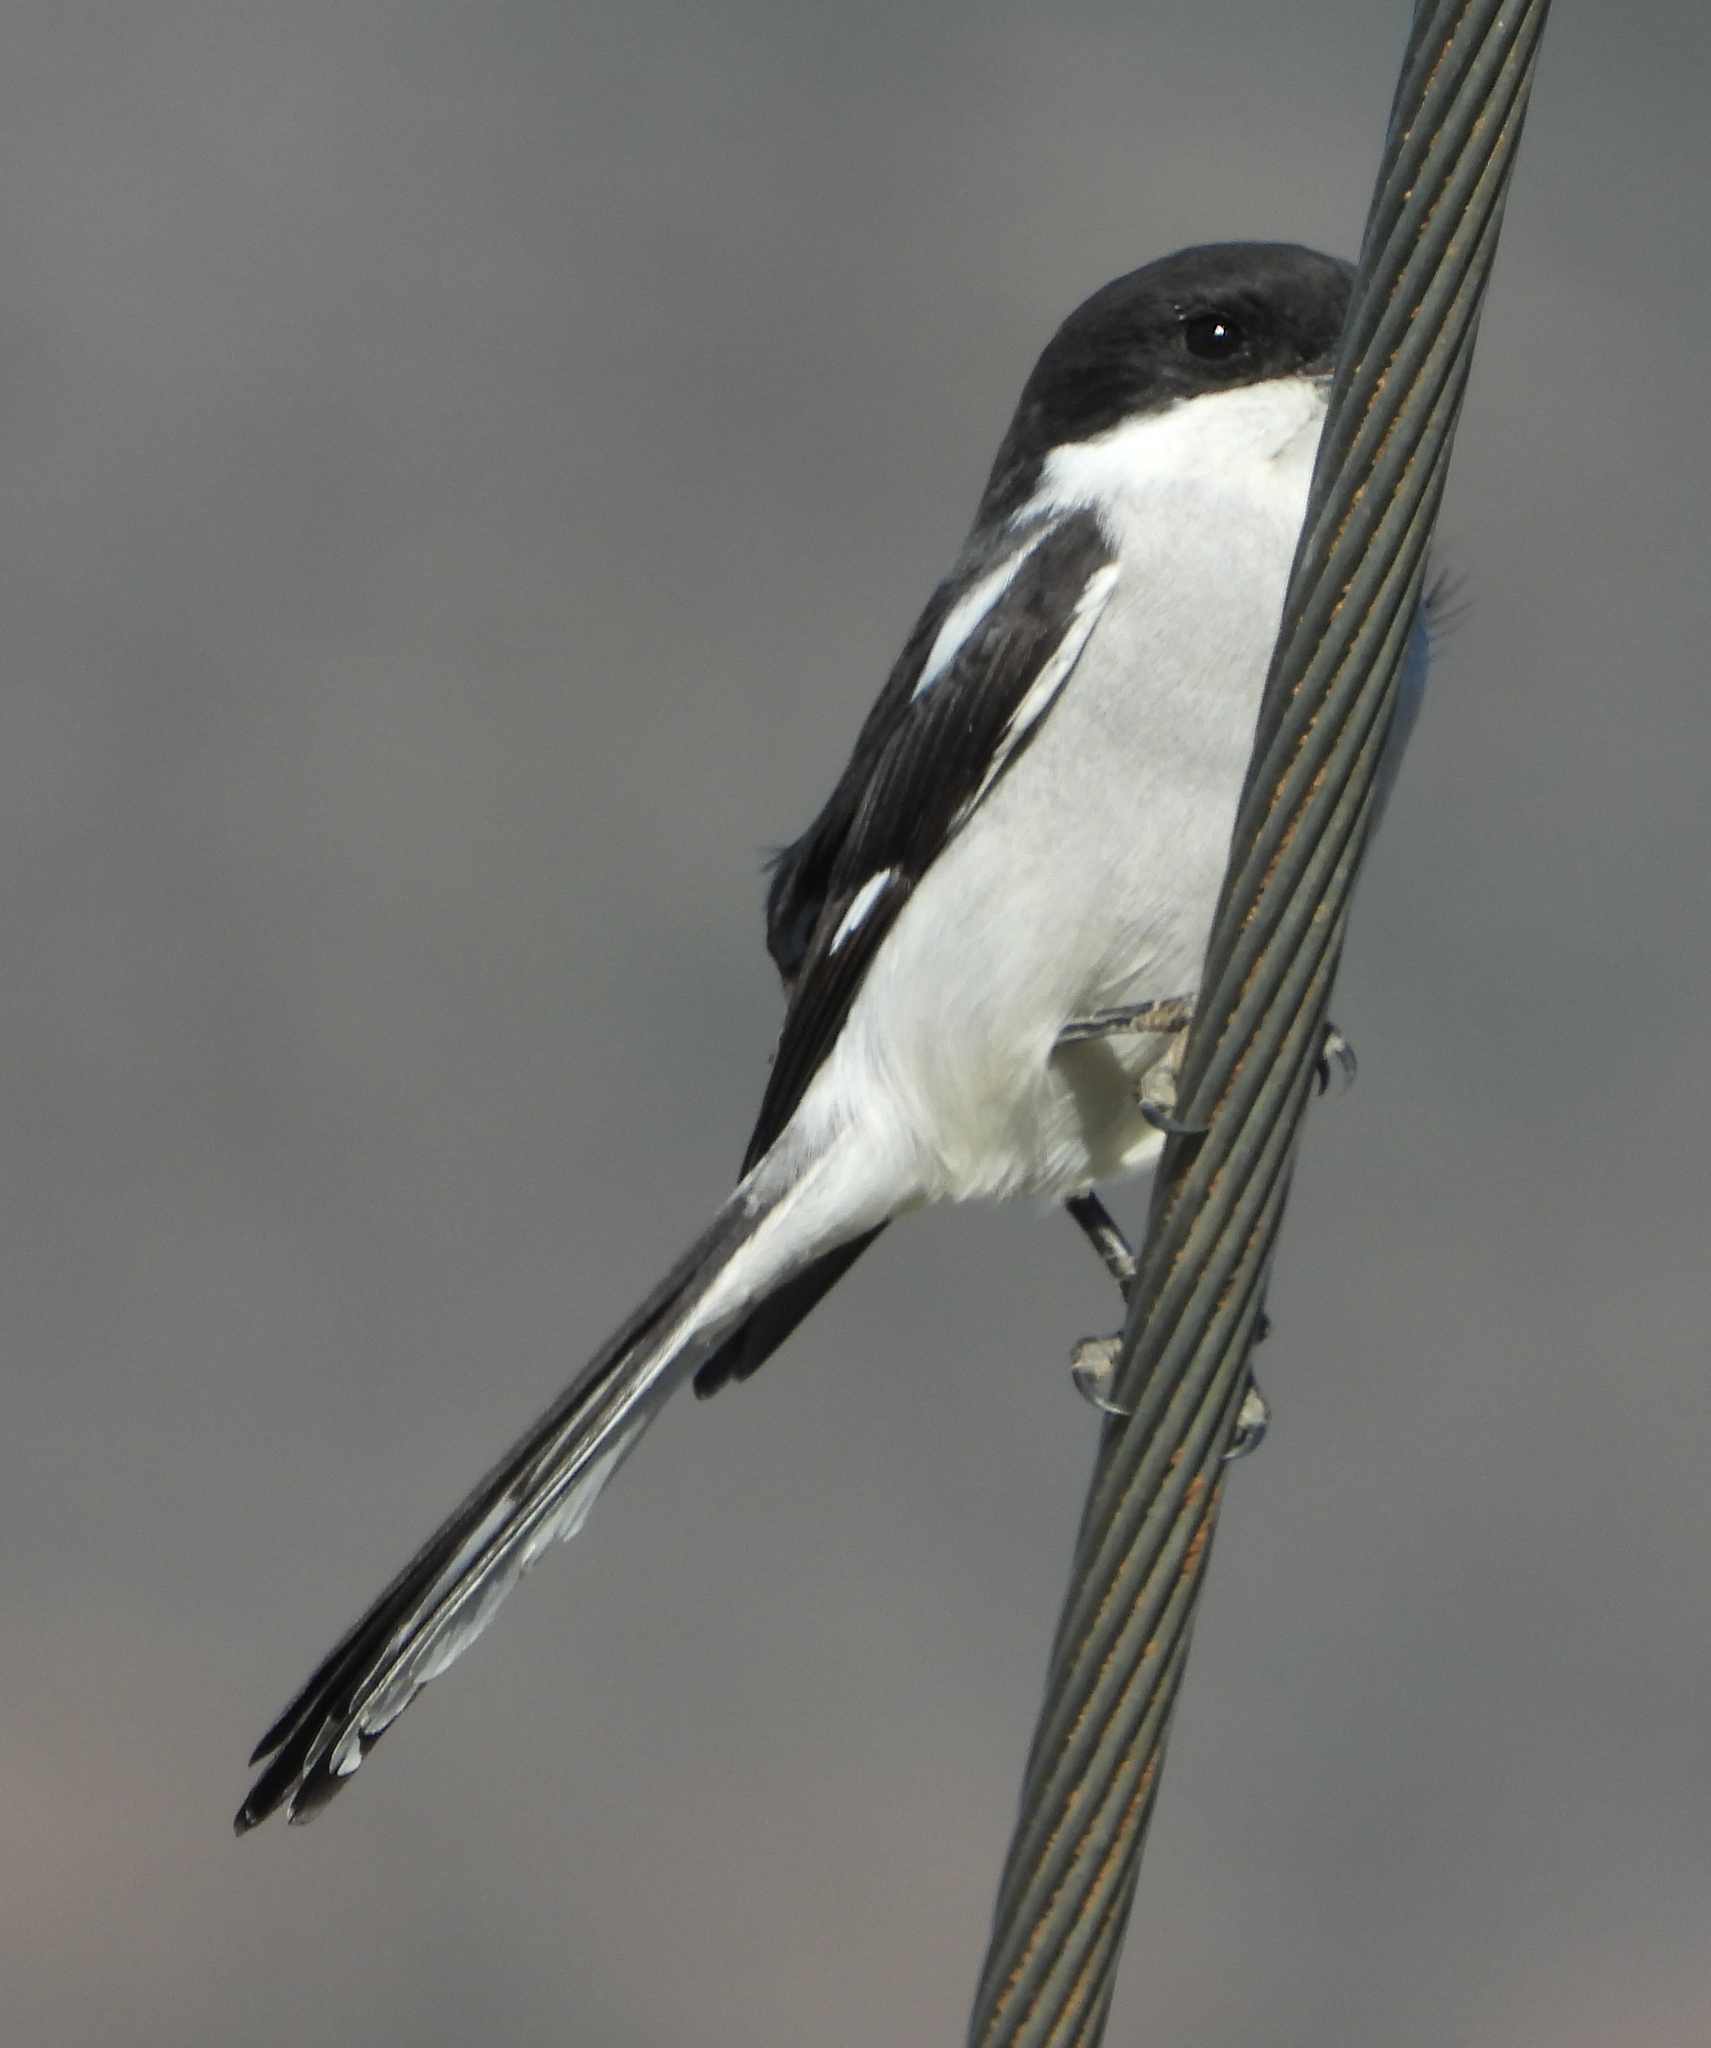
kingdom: Animalia
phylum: Chordata
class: Aves
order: Passeriformes
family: Laniidae
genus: Lanius
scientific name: Lanius collaris
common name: Southern fiscal
